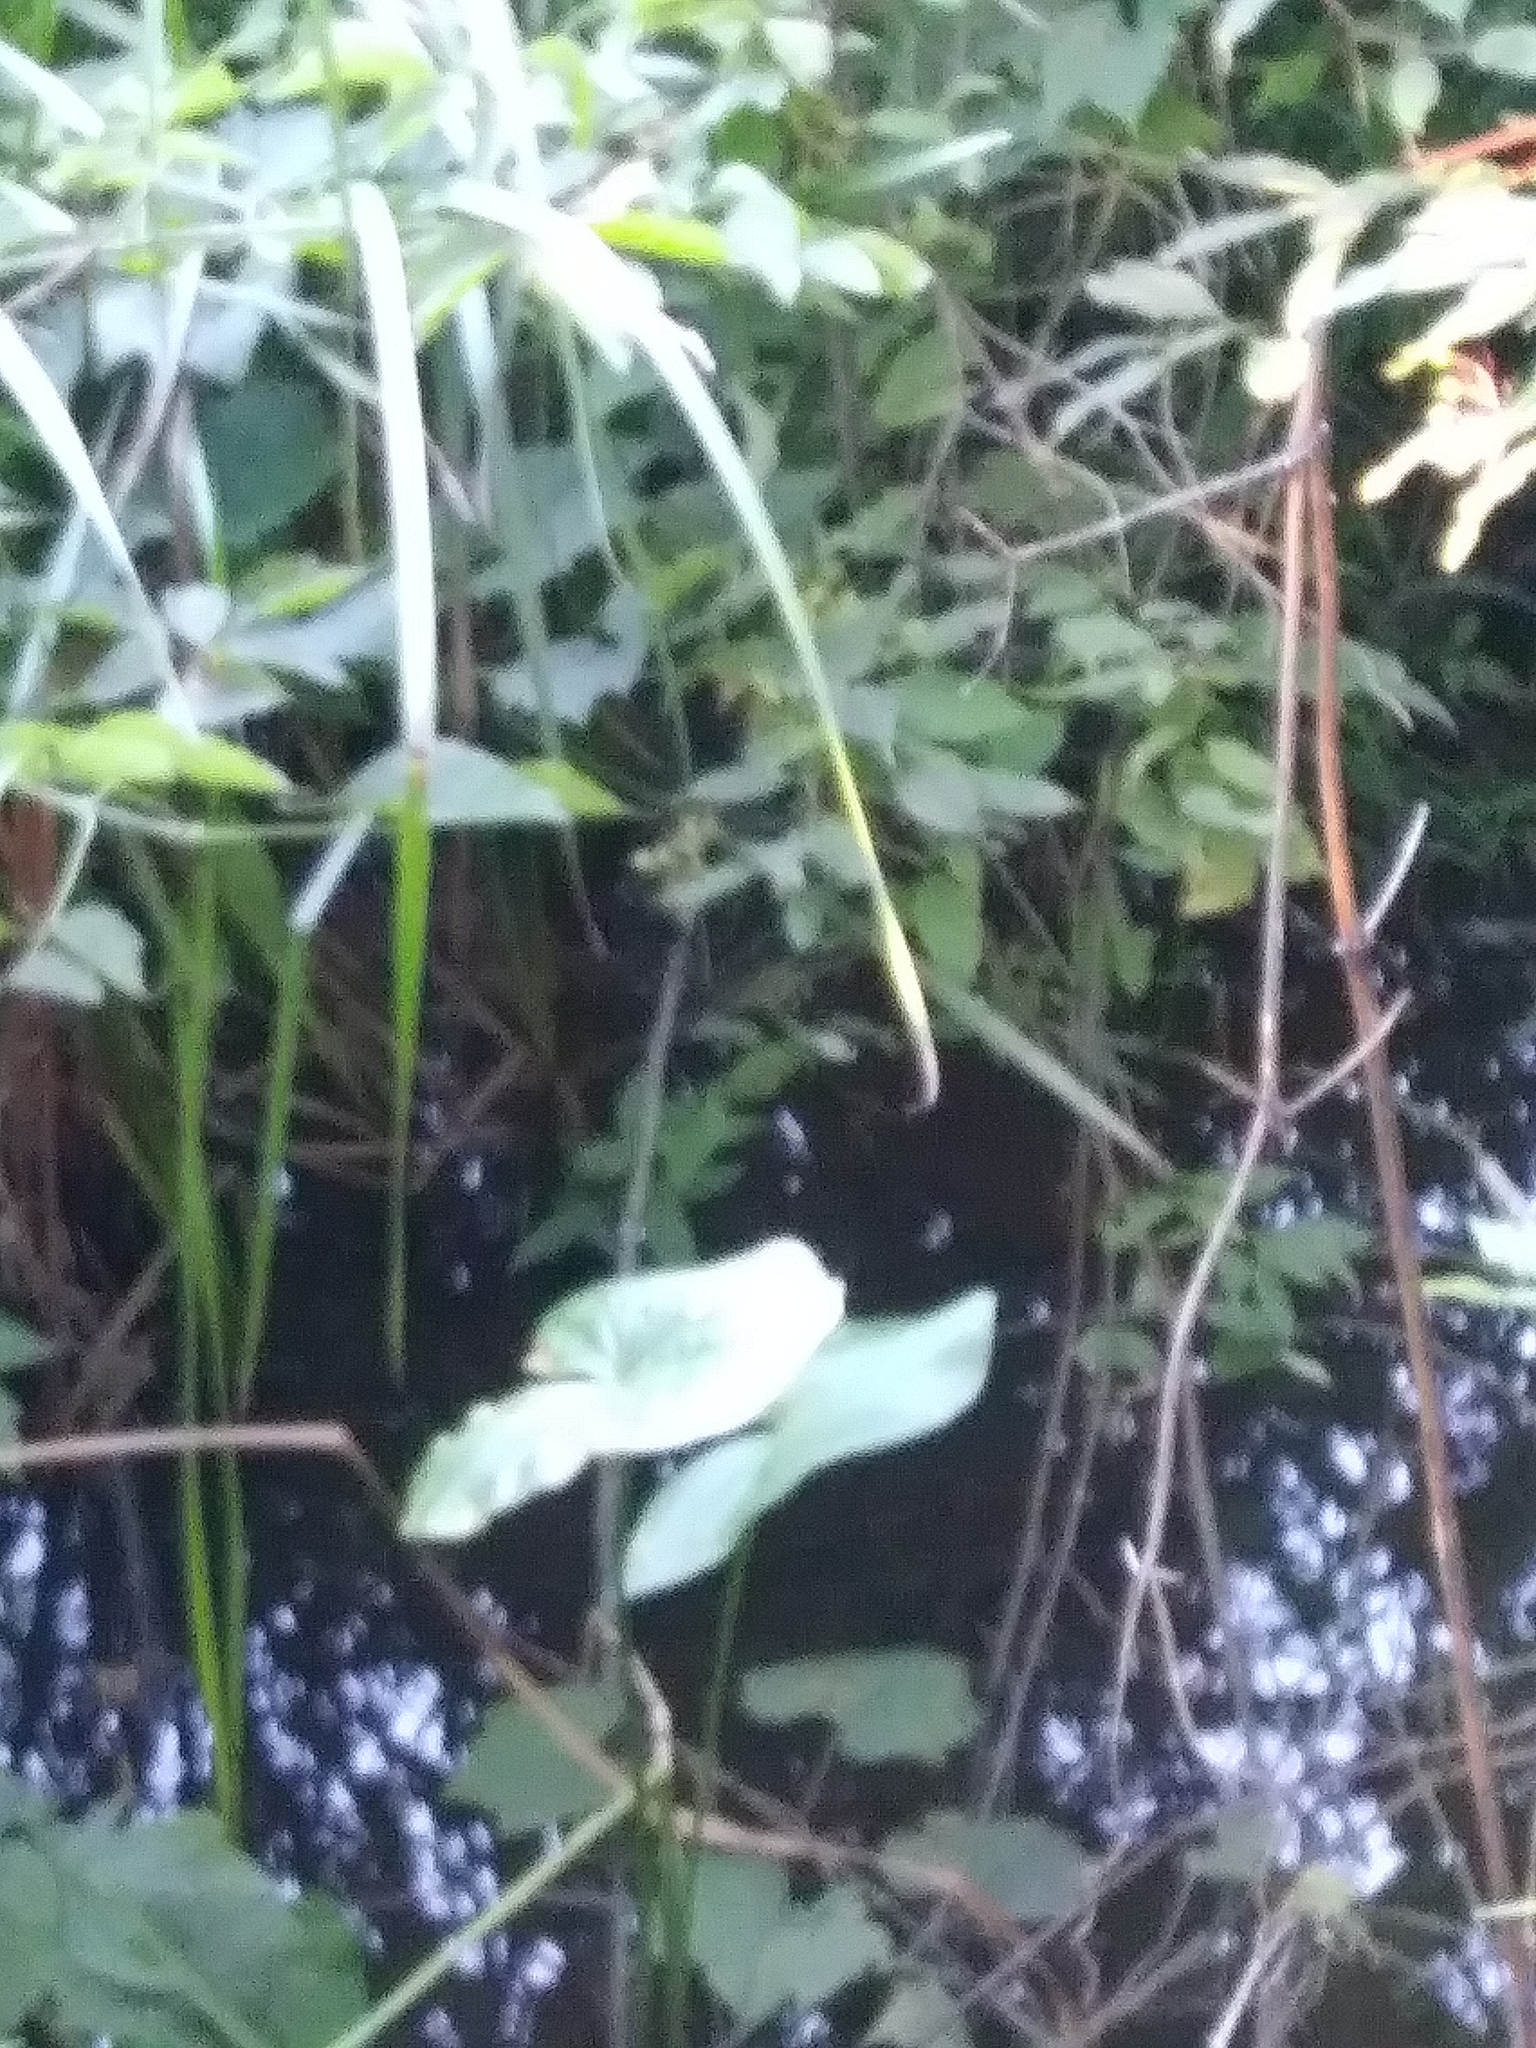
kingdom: Plantae
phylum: Tracheophyta
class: Liliopsida
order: Alismatales
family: Alismataceae
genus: Sagittaria
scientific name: Sagittaria
